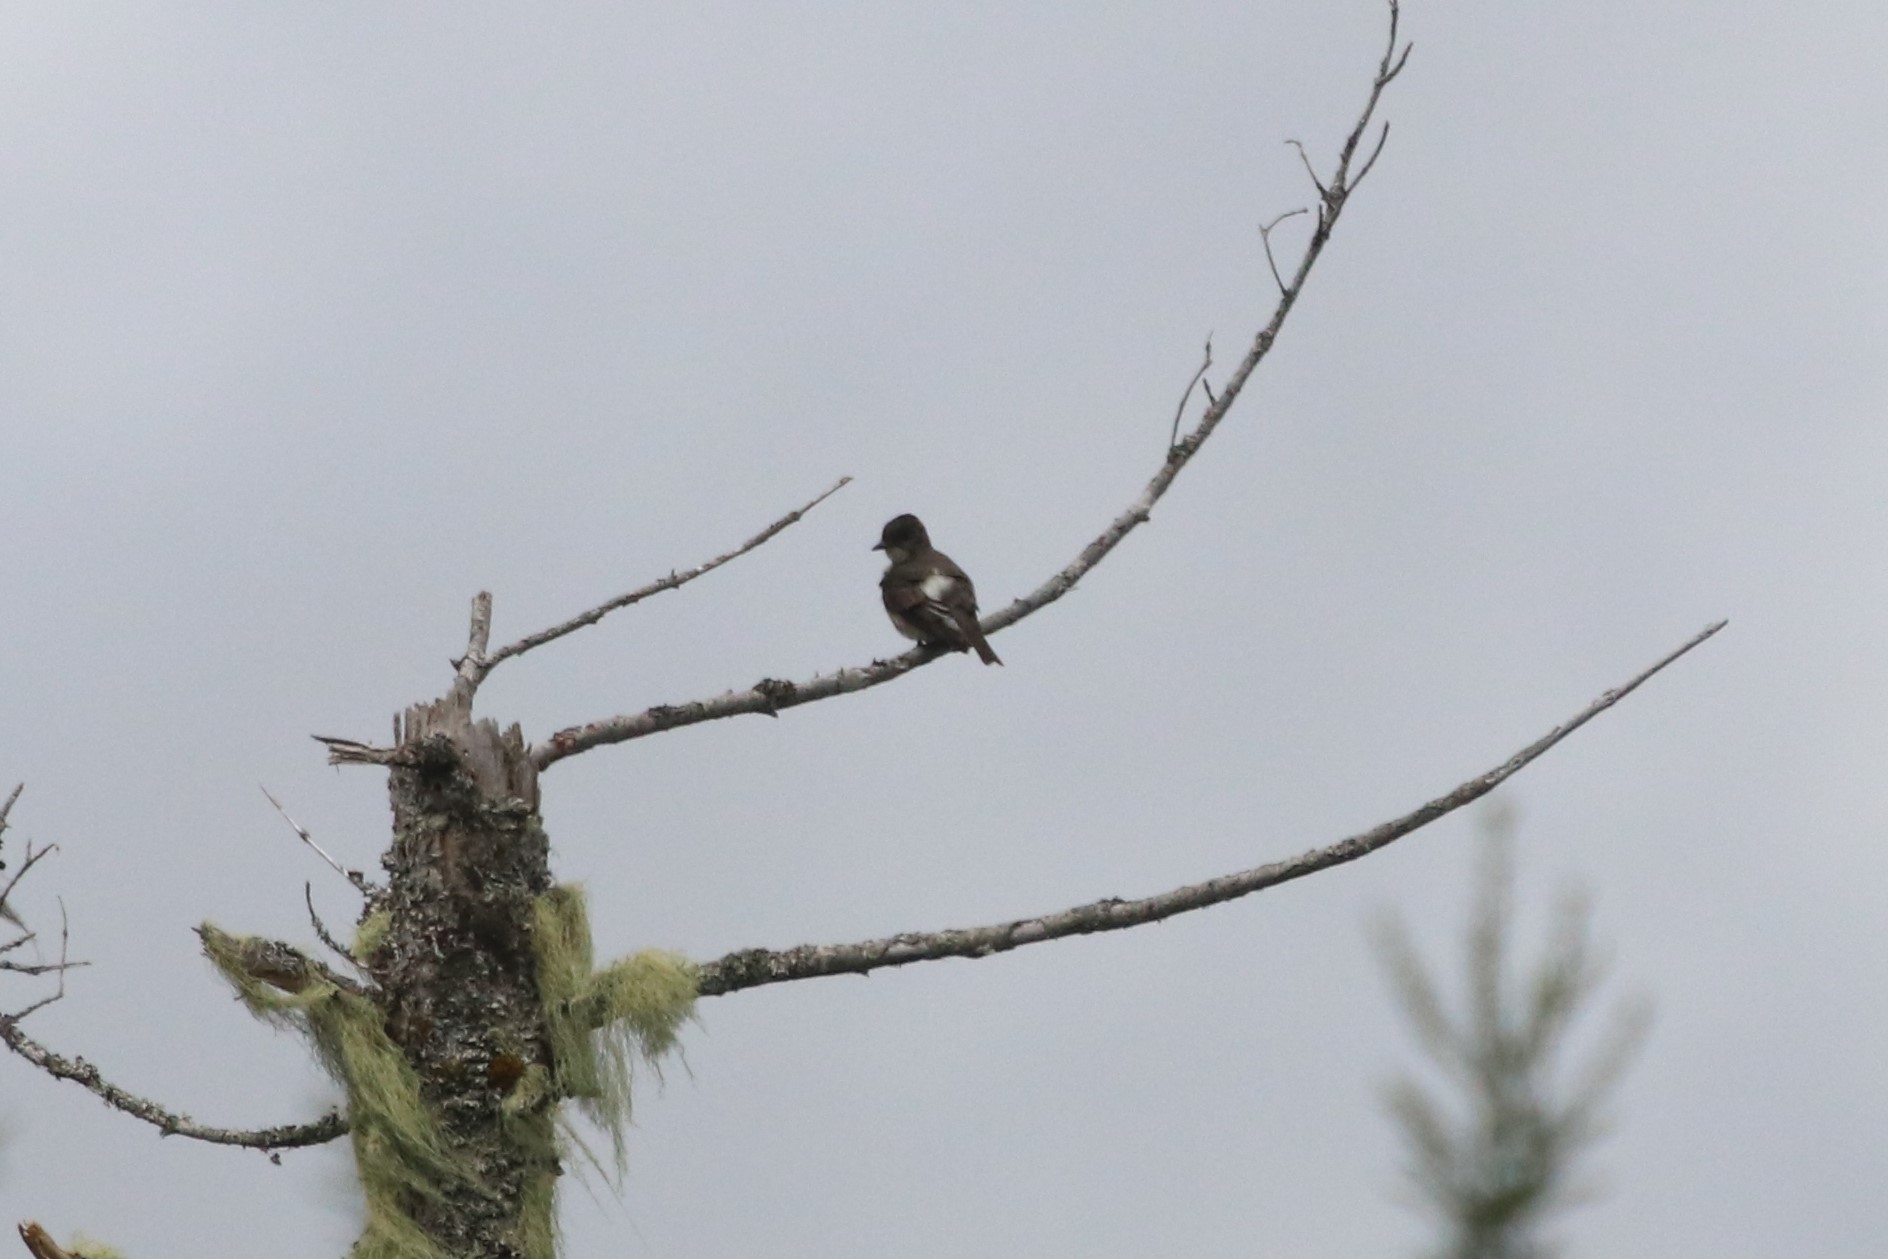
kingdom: Animalia
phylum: Chordata
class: Aves
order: Passeriformes
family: Tyrannidae
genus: Contopus
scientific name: Contopus cooperi
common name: Olive-sided flycatcher
